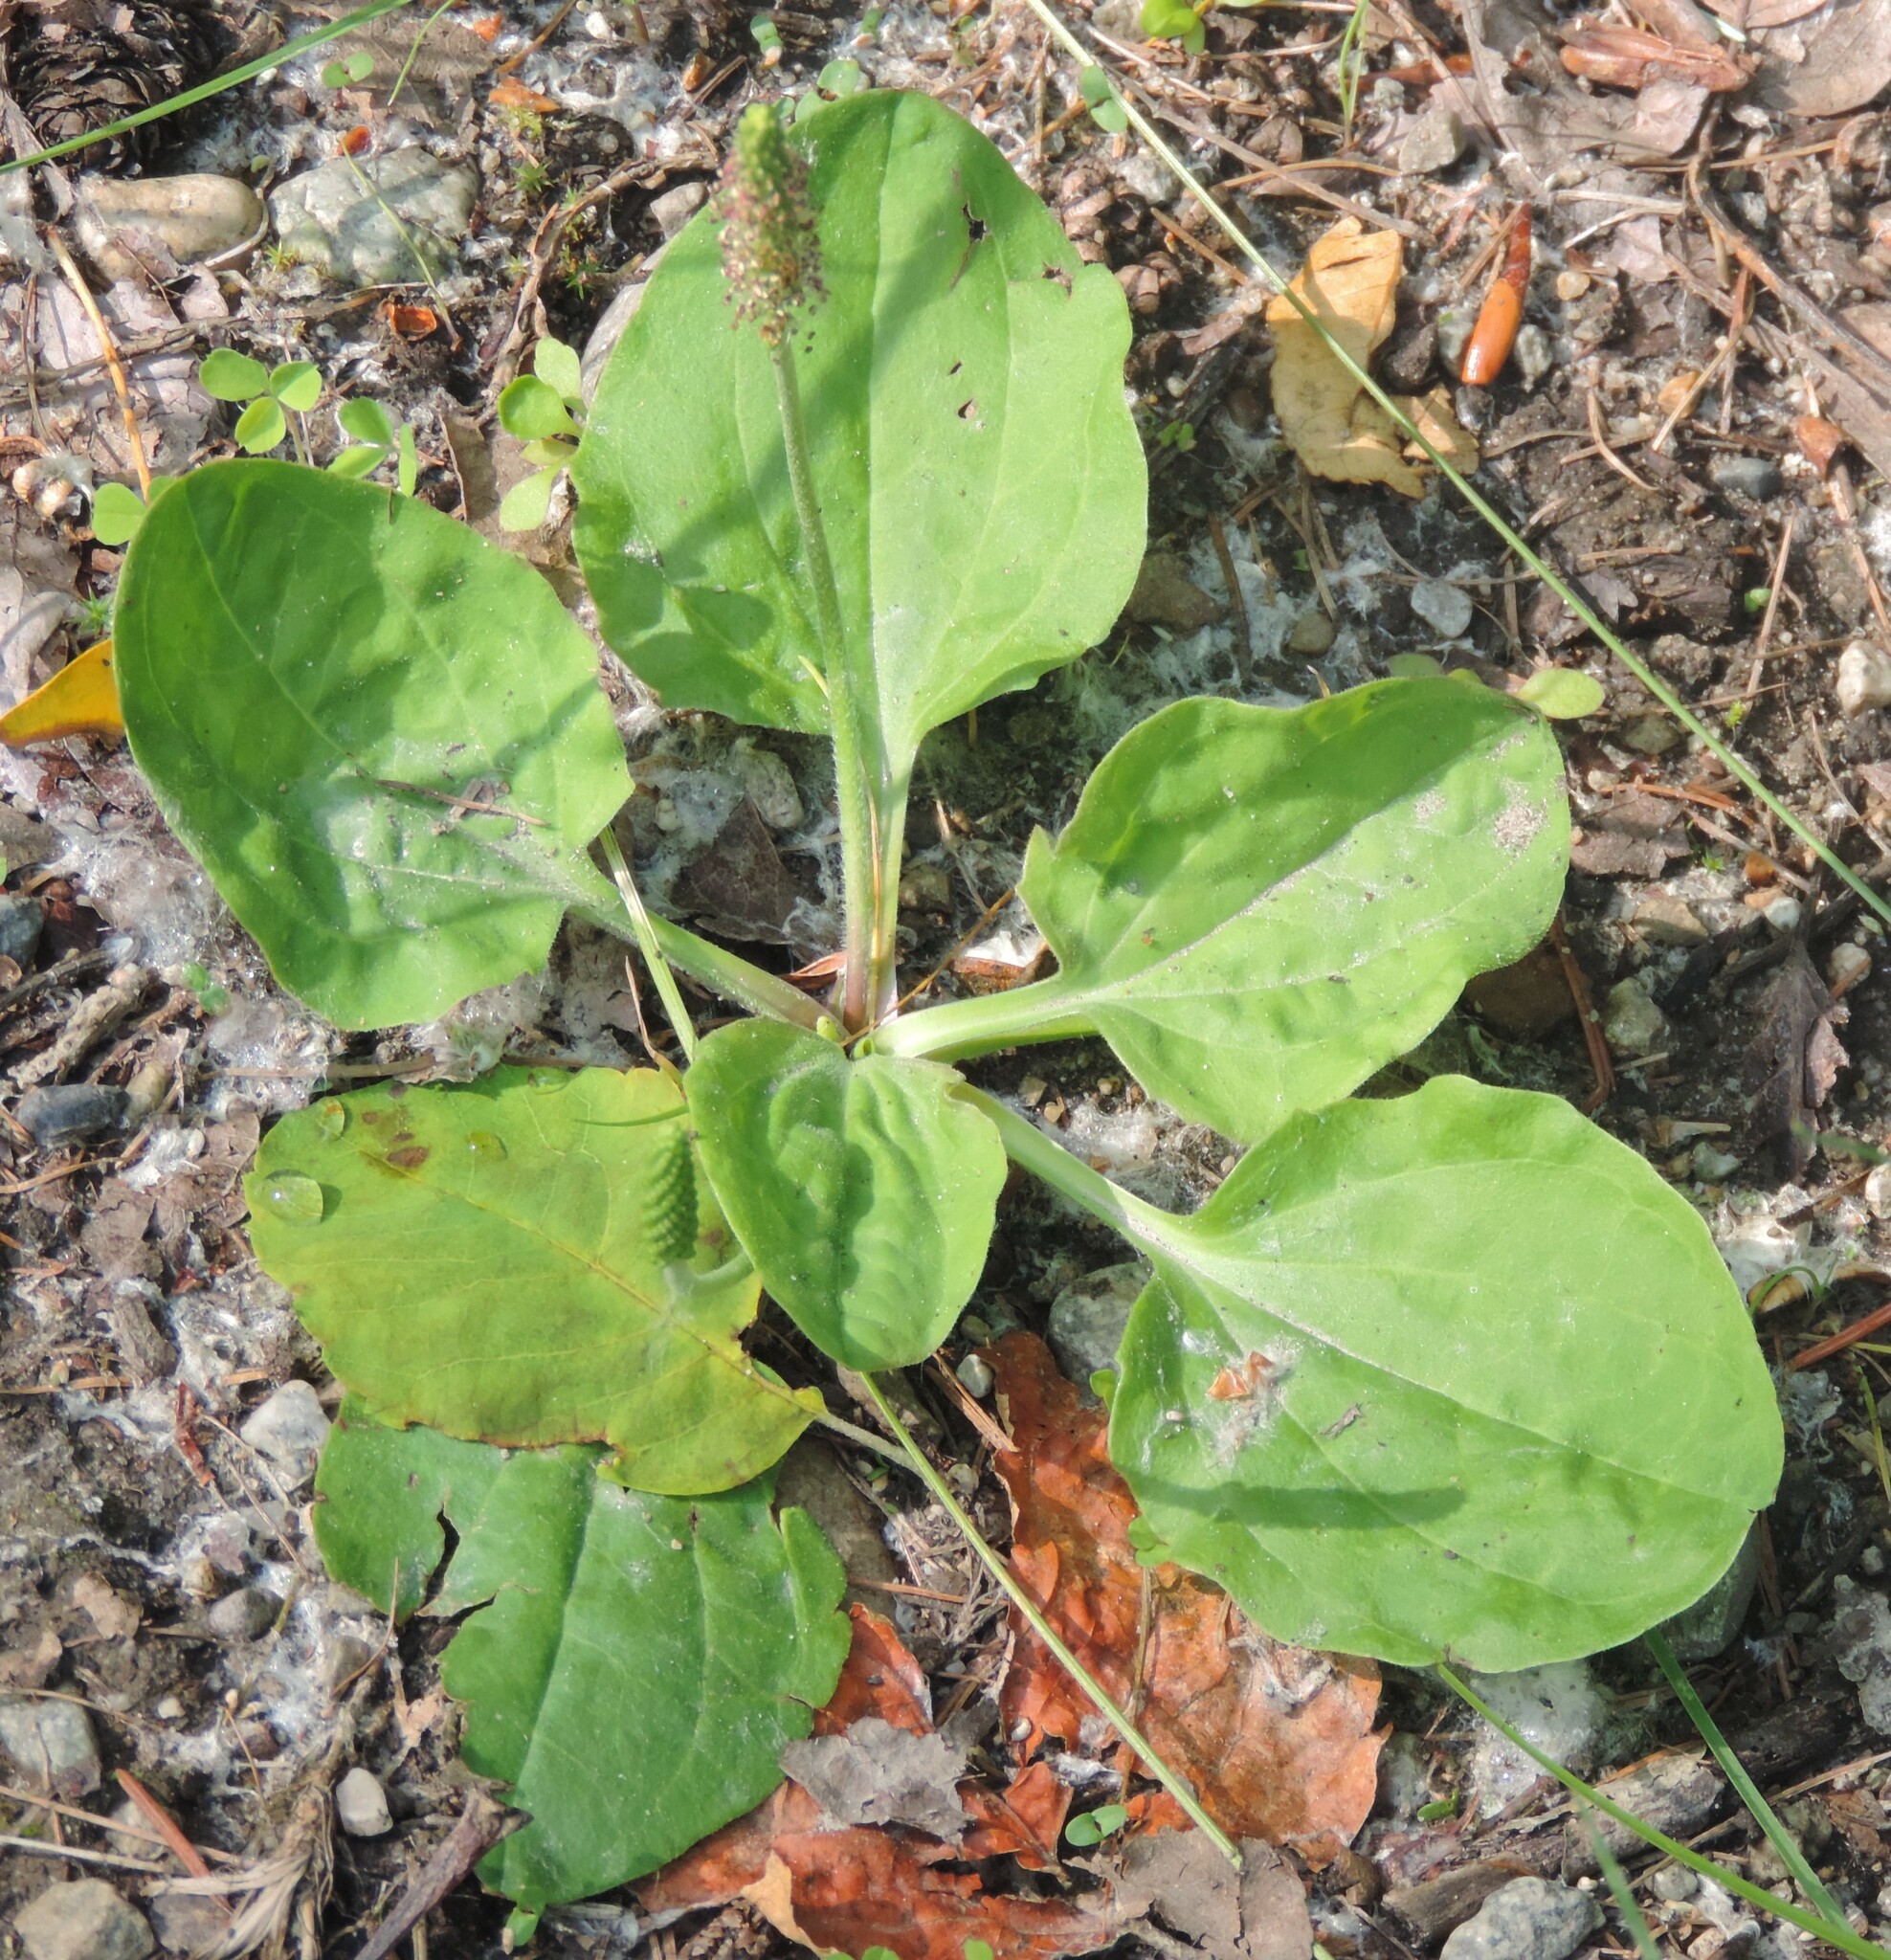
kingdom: Plantae
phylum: Tracheophyta
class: Magnoliopsida
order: Lamiales
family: Plantaginaceae
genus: Plantago
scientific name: Plantago major
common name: Common plantain
